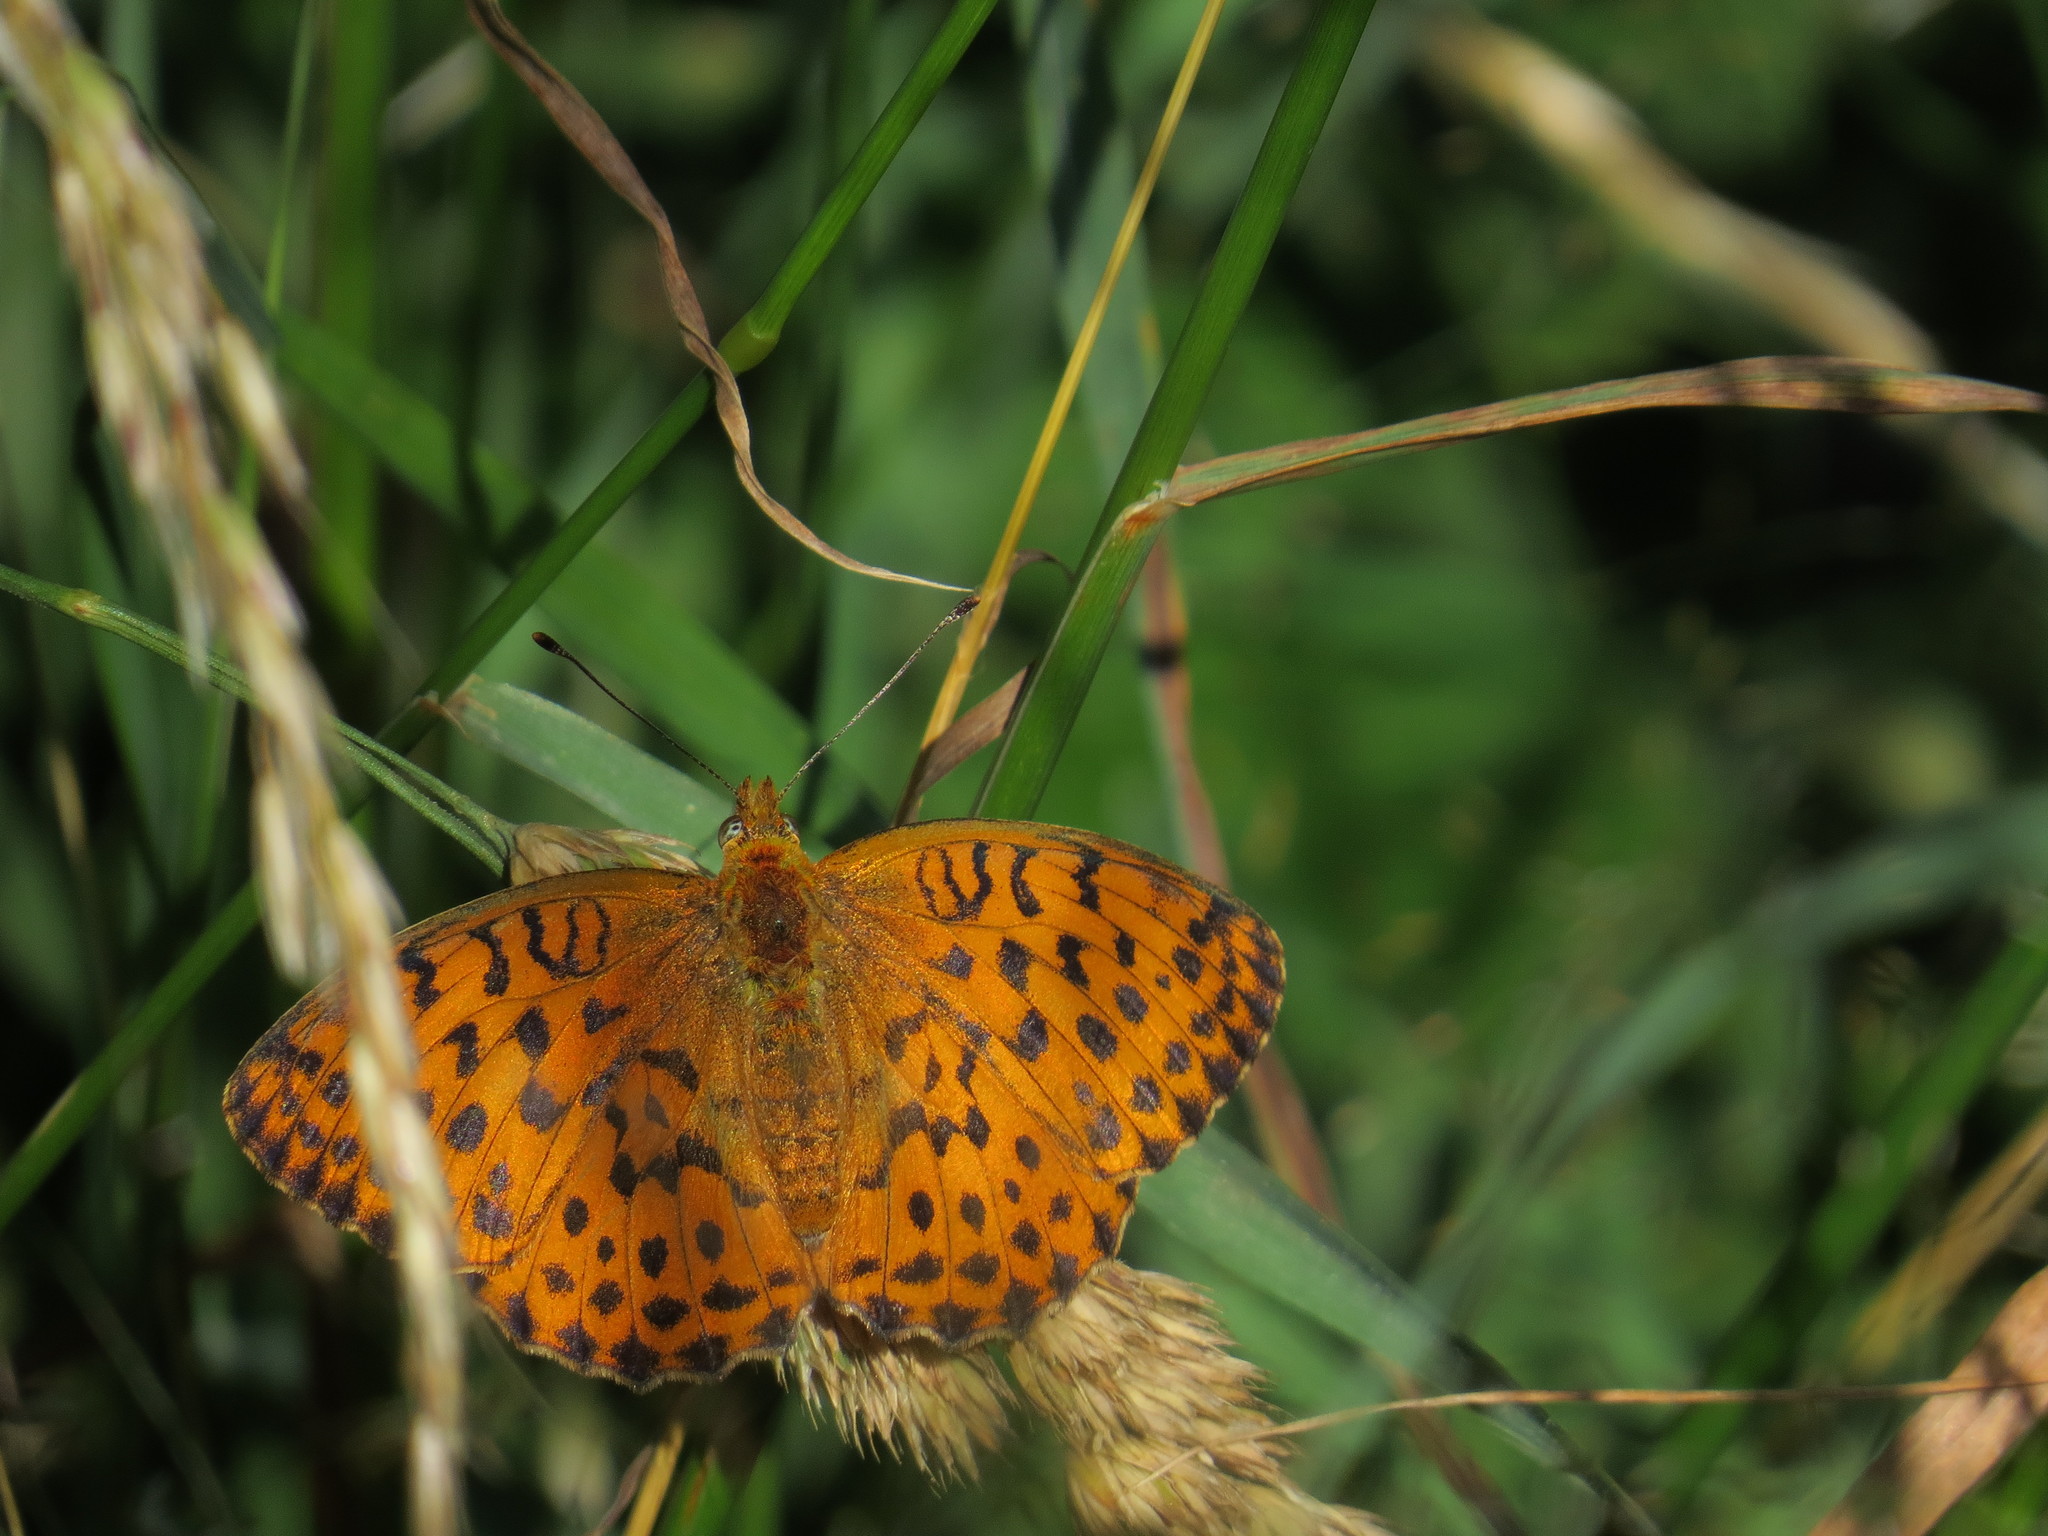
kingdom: Animalia
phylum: Arthropoda
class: Insecta
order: Lepidoptera
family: Nymphalidae
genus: Brenthis
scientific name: Brenthis daphne
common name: Marbled fritillary
